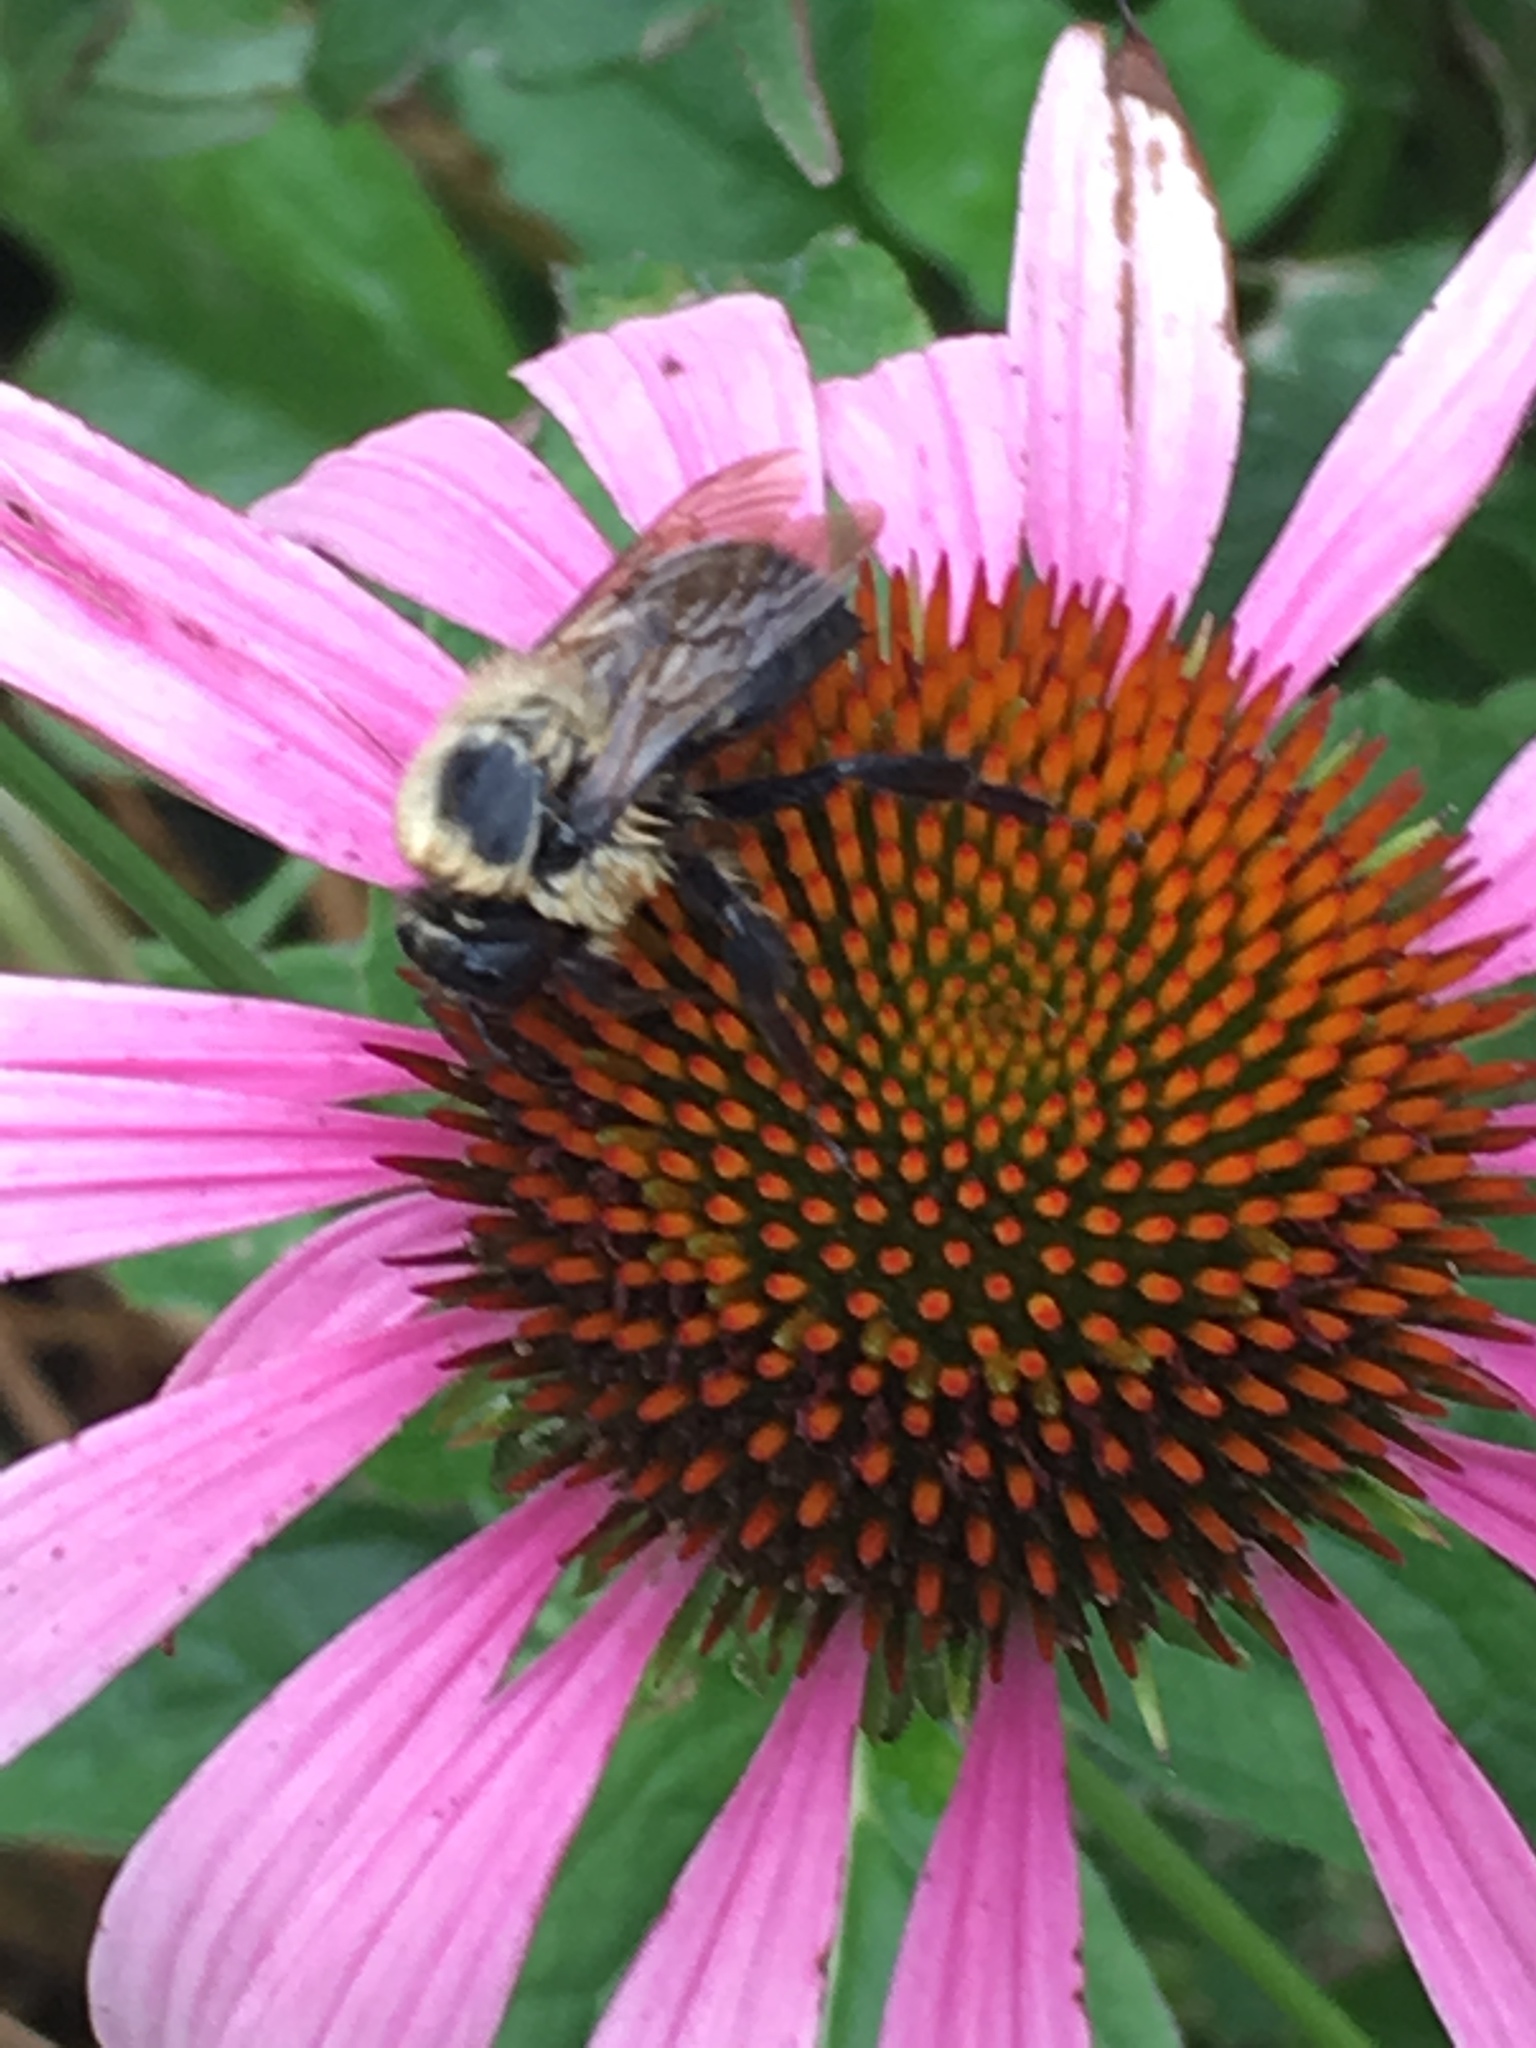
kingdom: Animalia
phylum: Arthropoda
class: Insecta
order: Hymenoptera
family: Apidae
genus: Bombus
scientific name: Bombus griseocollis
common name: Brown-belted bumble bee
